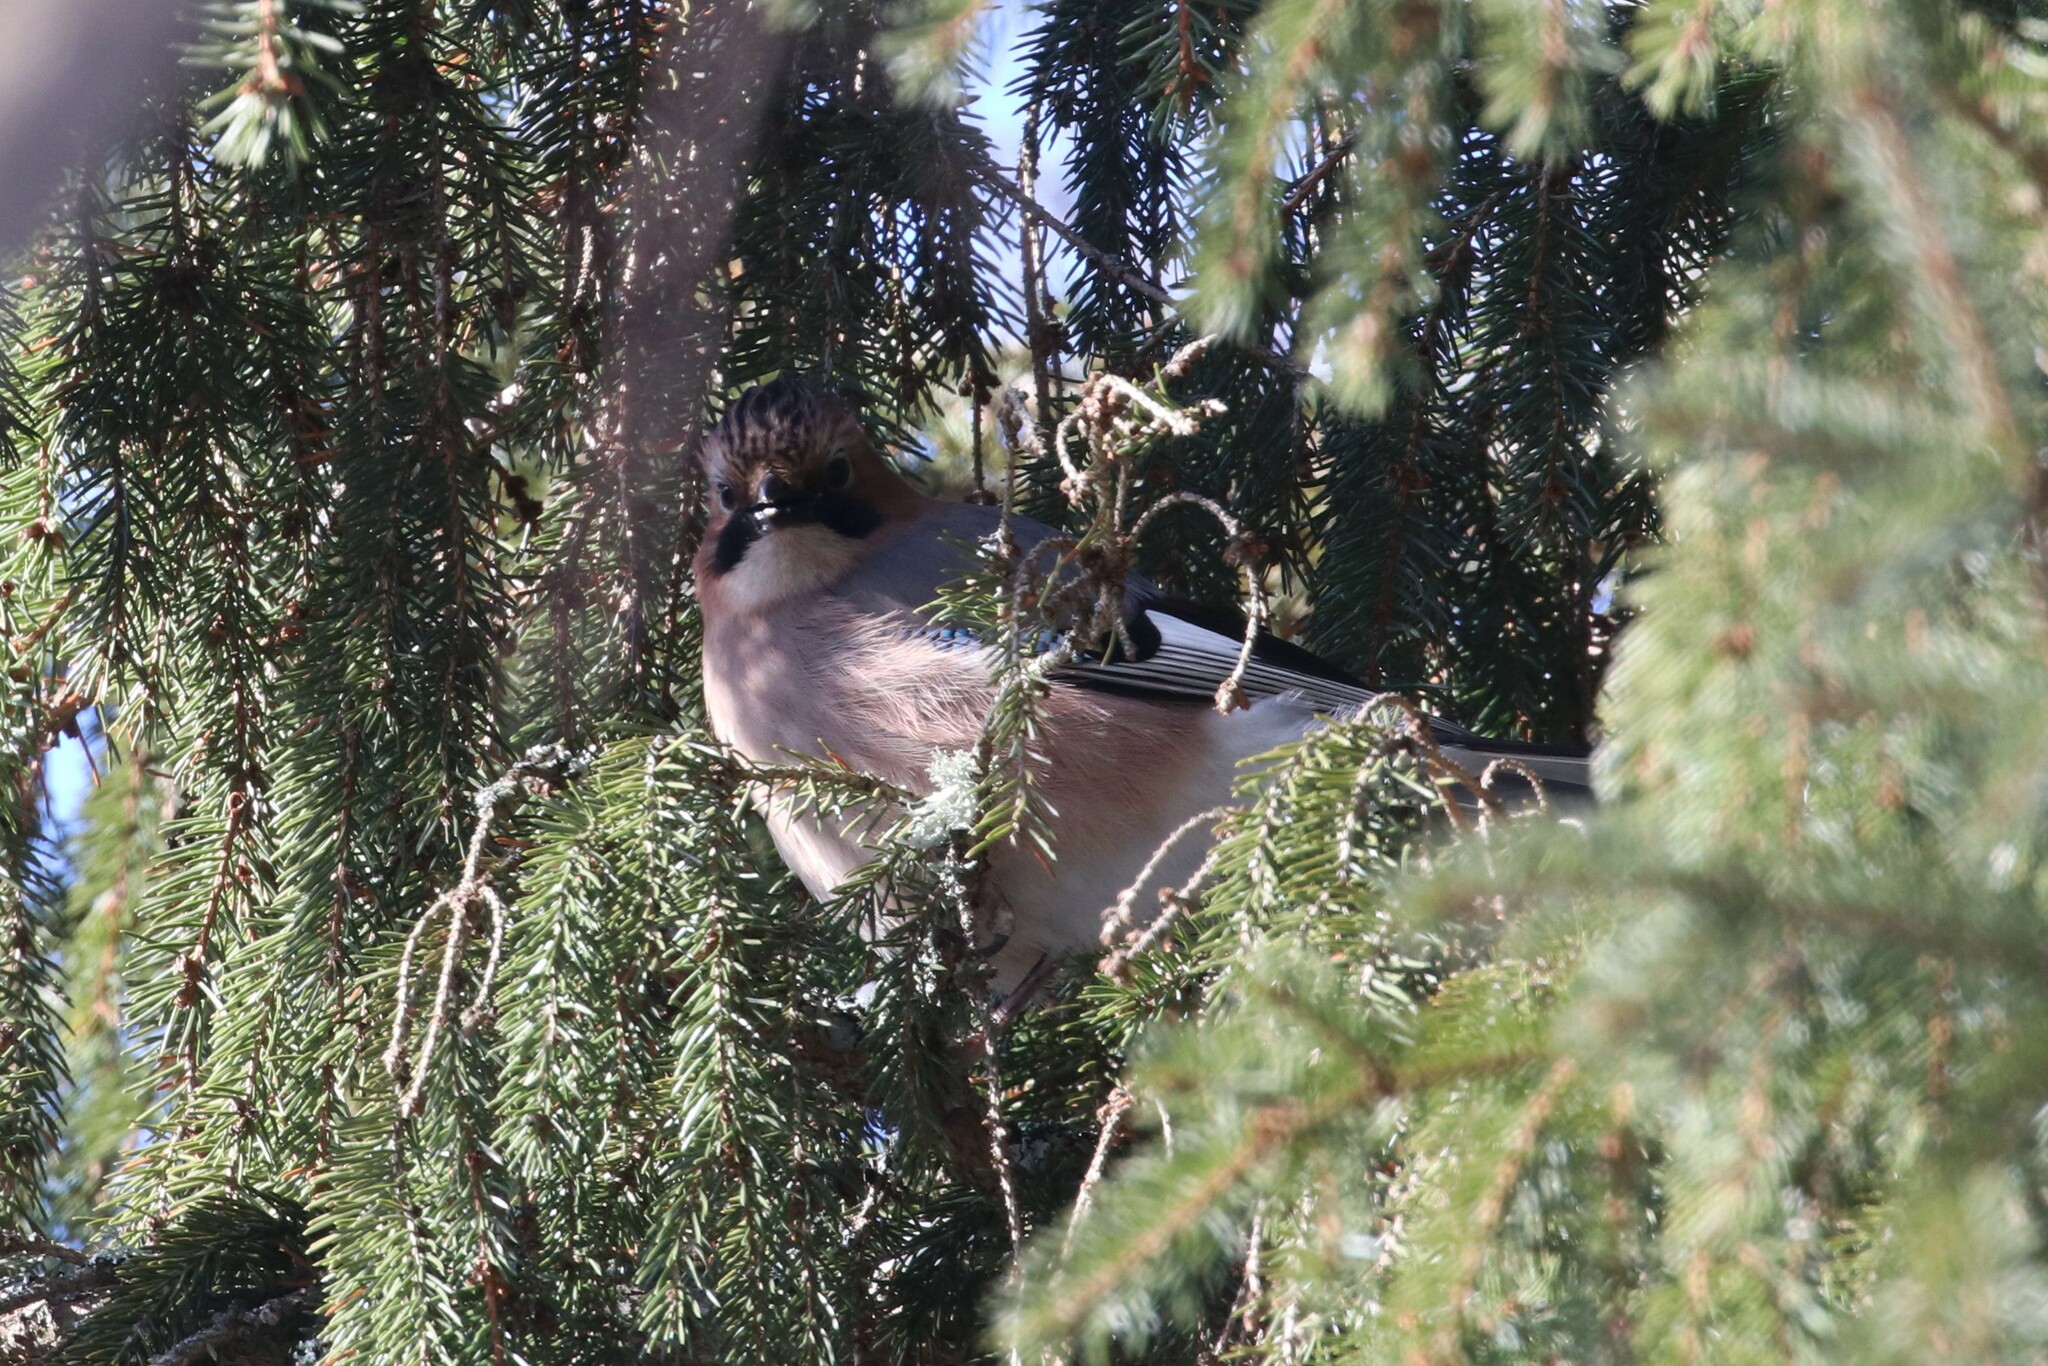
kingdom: Animalia
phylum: Chordata
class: Aves
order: Passeriformes
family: Corvidae
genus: Garrulus
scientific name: Garrulus glandarius
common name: Eurasian jay
